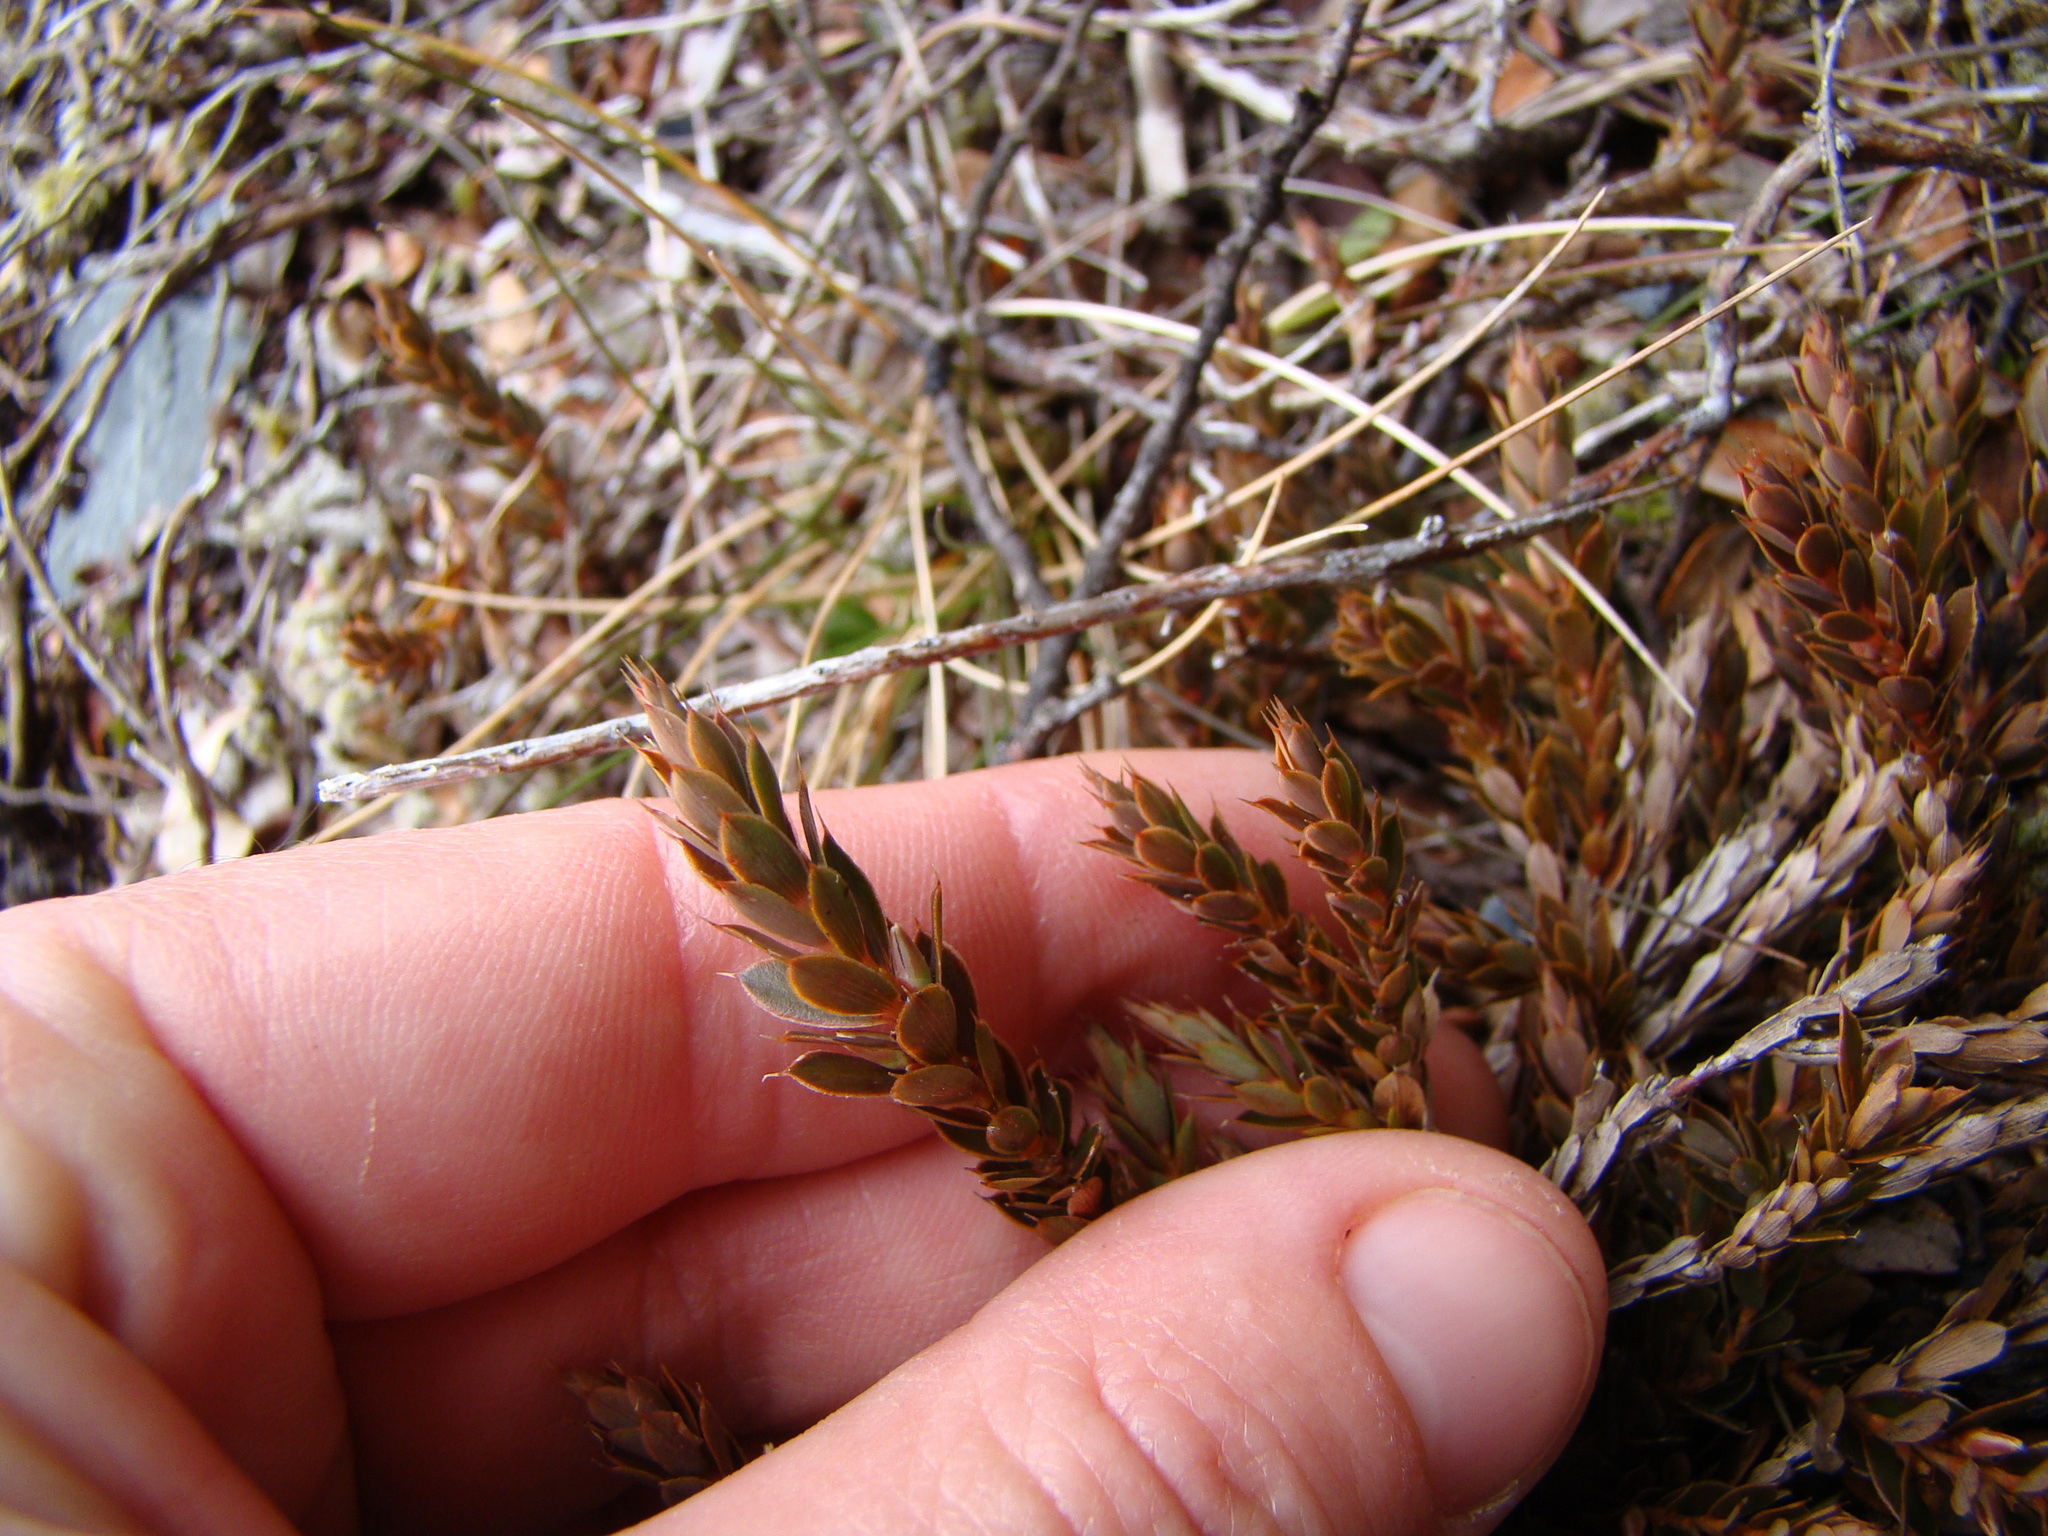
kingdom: Plantae
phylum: Tracheophyta
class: Magnoliopsida
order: Ericales
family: Ericaceae
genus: Styphelia
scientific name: Styphelia nesophila
